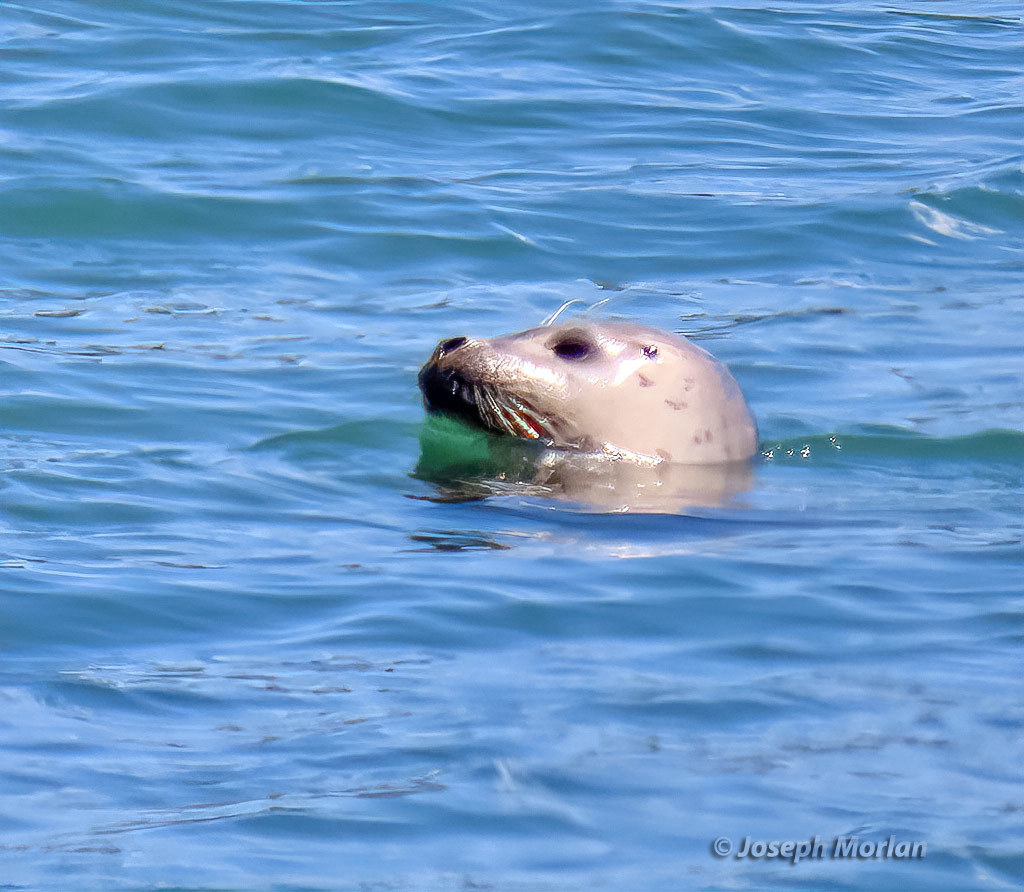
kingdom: Animalia
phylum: Chordata
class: Mammalia
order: Carnivora
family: Phocidae
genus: Phoca
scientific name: Phoca vitulina
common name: Harbor seal
